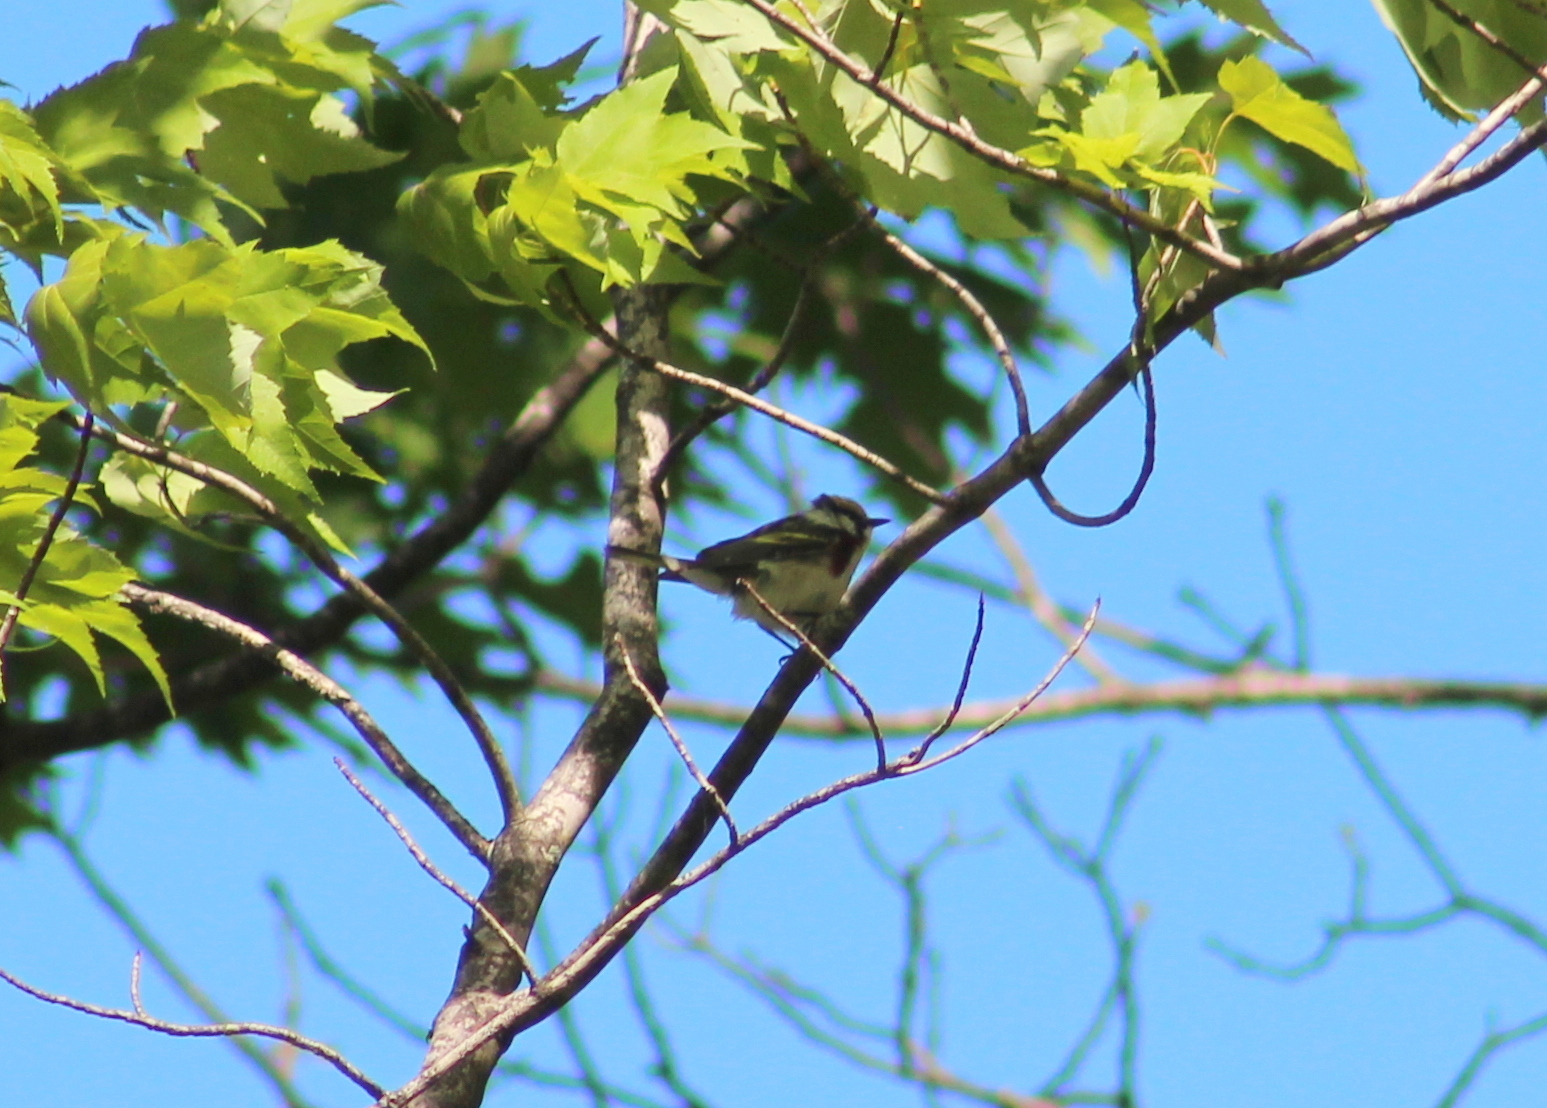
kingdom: Animalia
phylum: Chordata
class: Aves
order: Passeriformes
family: Parulidae
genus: Setophaga
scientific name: Setophaga pensylvanica
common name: Chestnut-sided warbler
